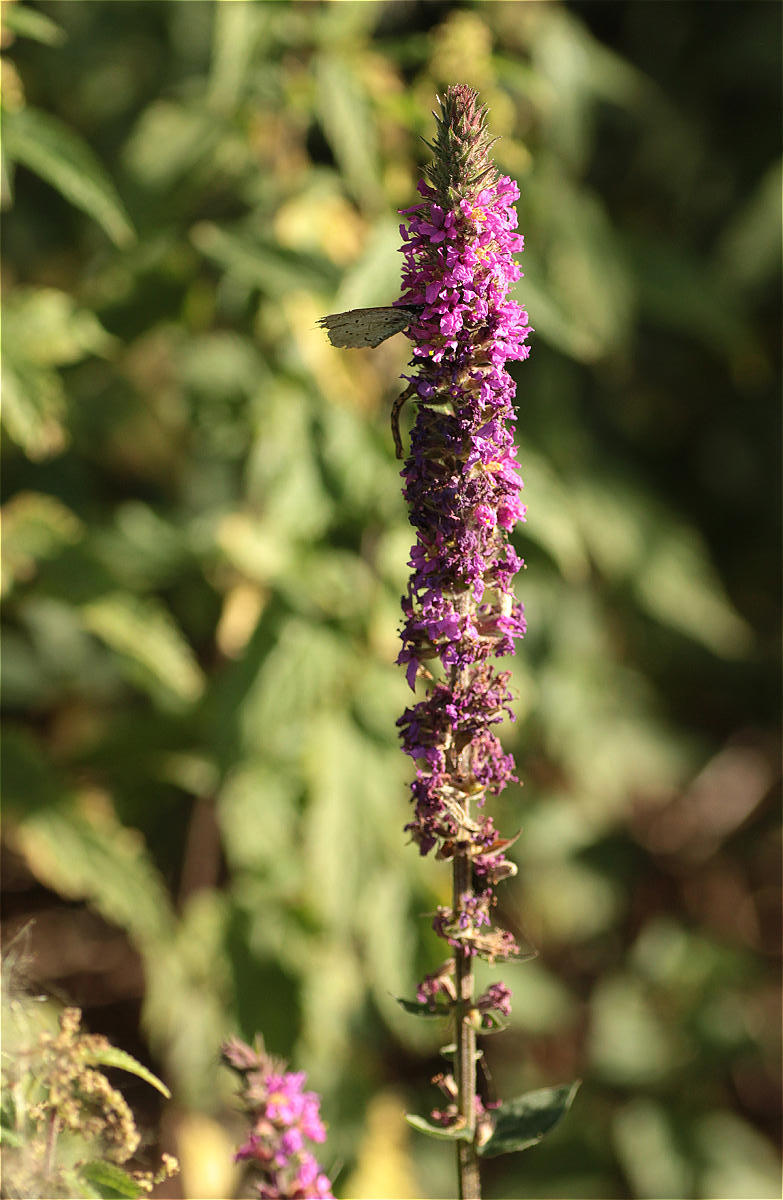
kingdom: Plantae
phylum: Tracheophyta
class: Magnoliopsida
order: Myrtales
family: Lythraceae
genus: Lythrum
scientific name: Lythrum salicaria
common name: Purple loosestrife
